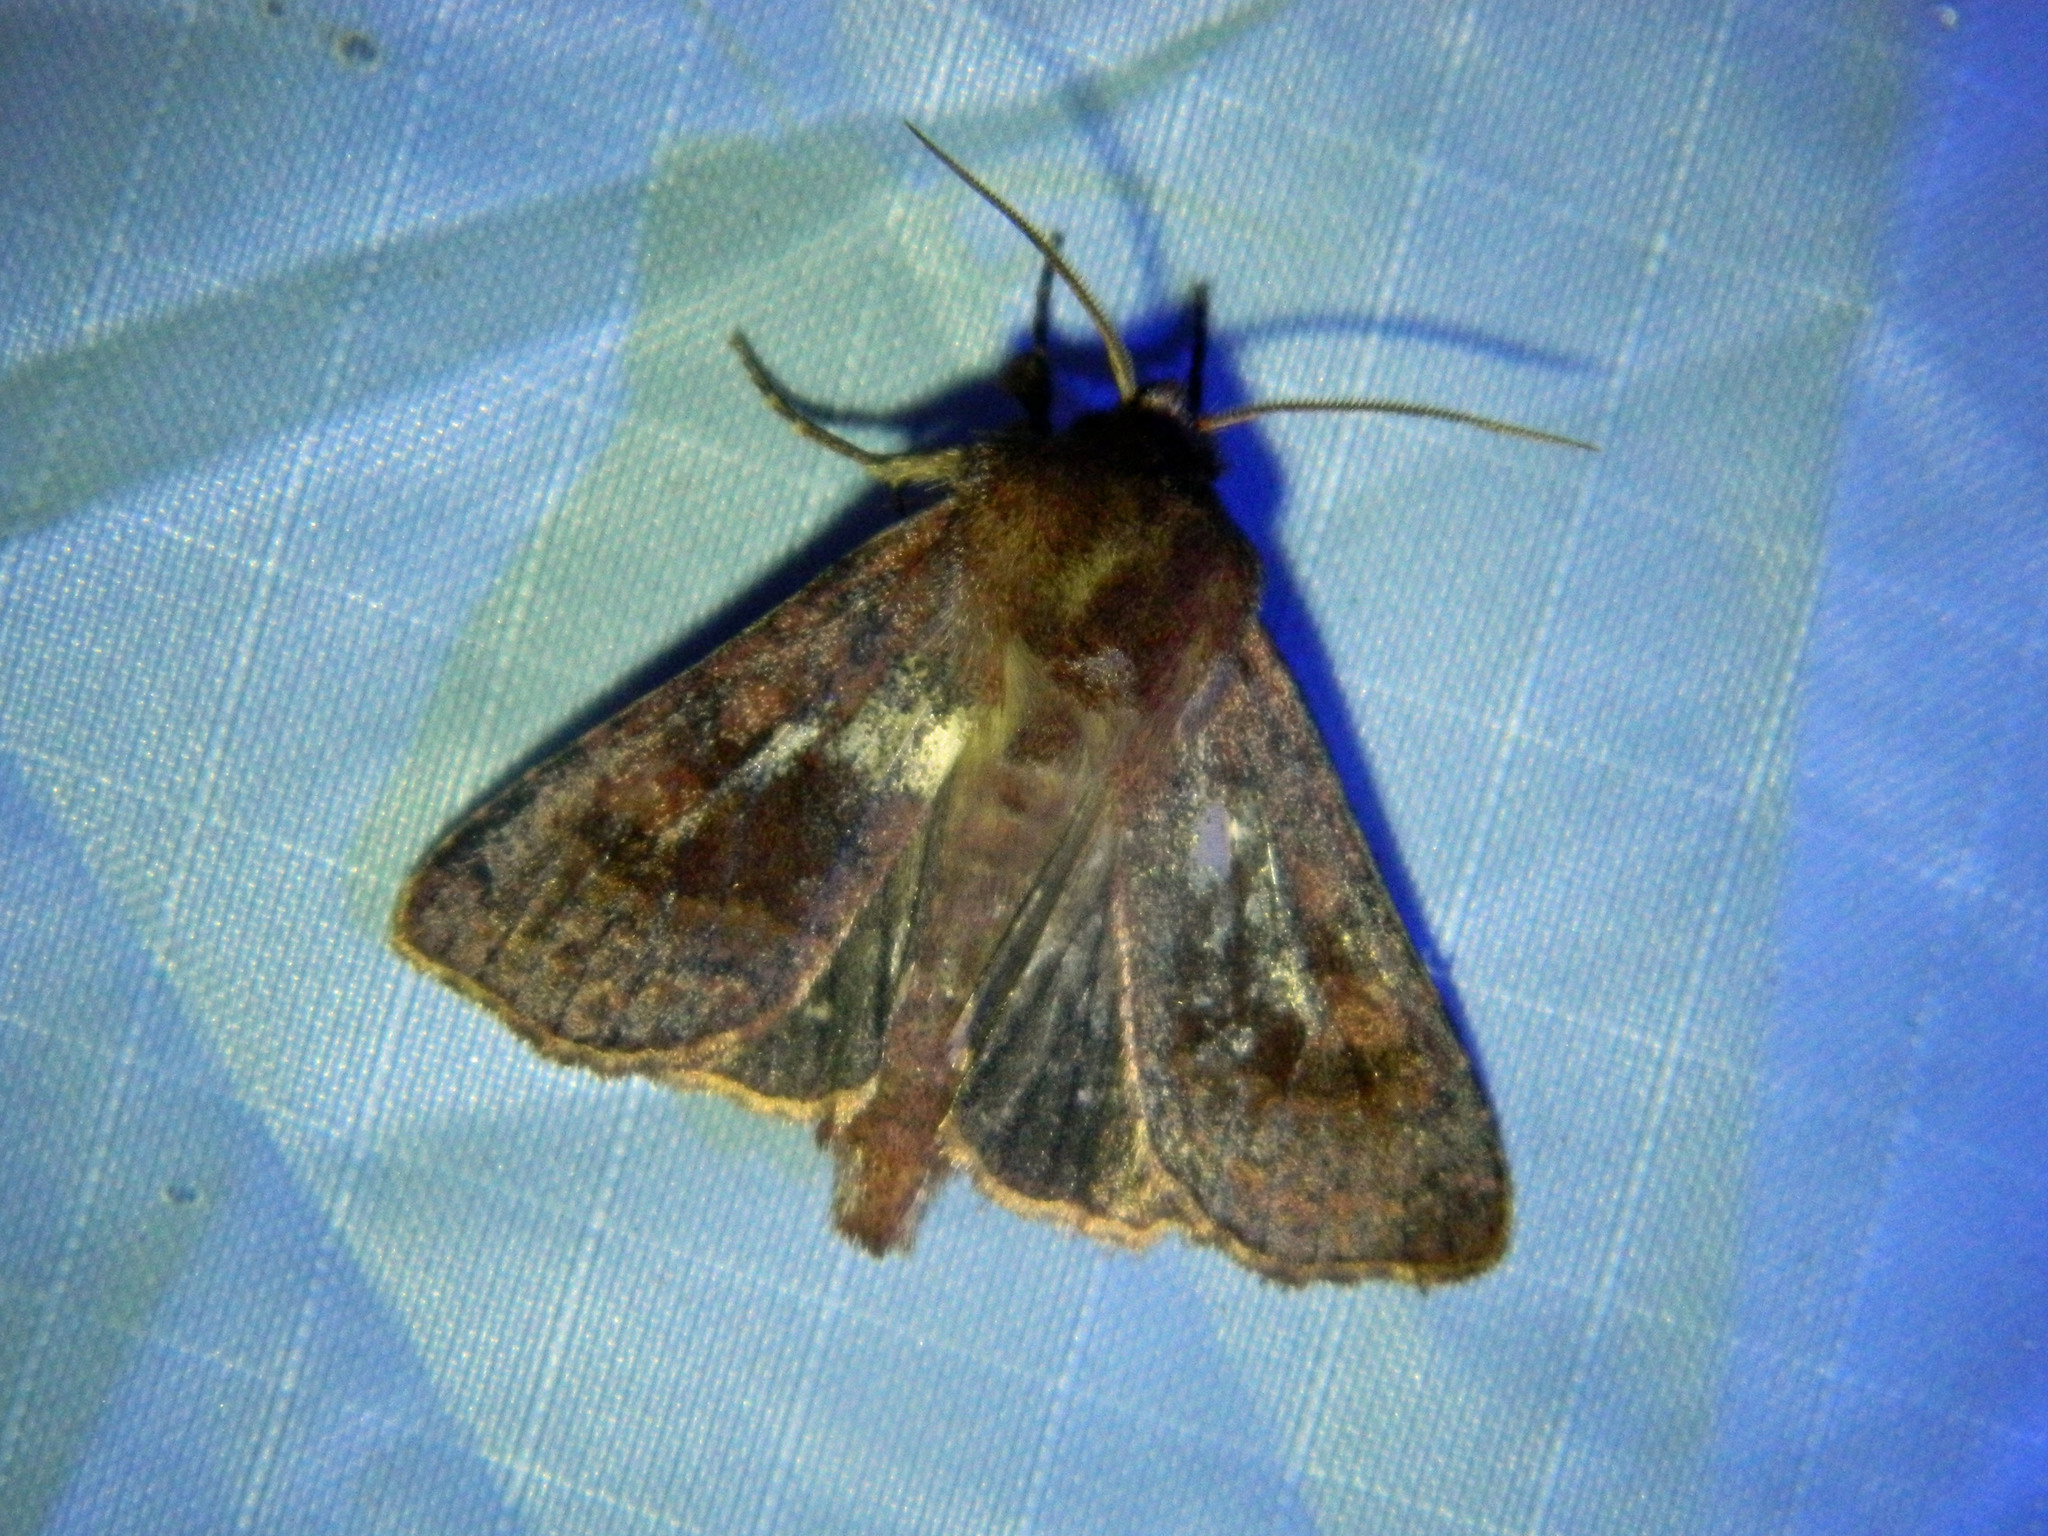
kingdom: Animalia
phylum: Arthropoda
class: Insecta
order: Lepidoptera
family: Noctuidae
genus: Nephelodes
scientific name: Nephelodes minians
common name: Bronzed cutworm
